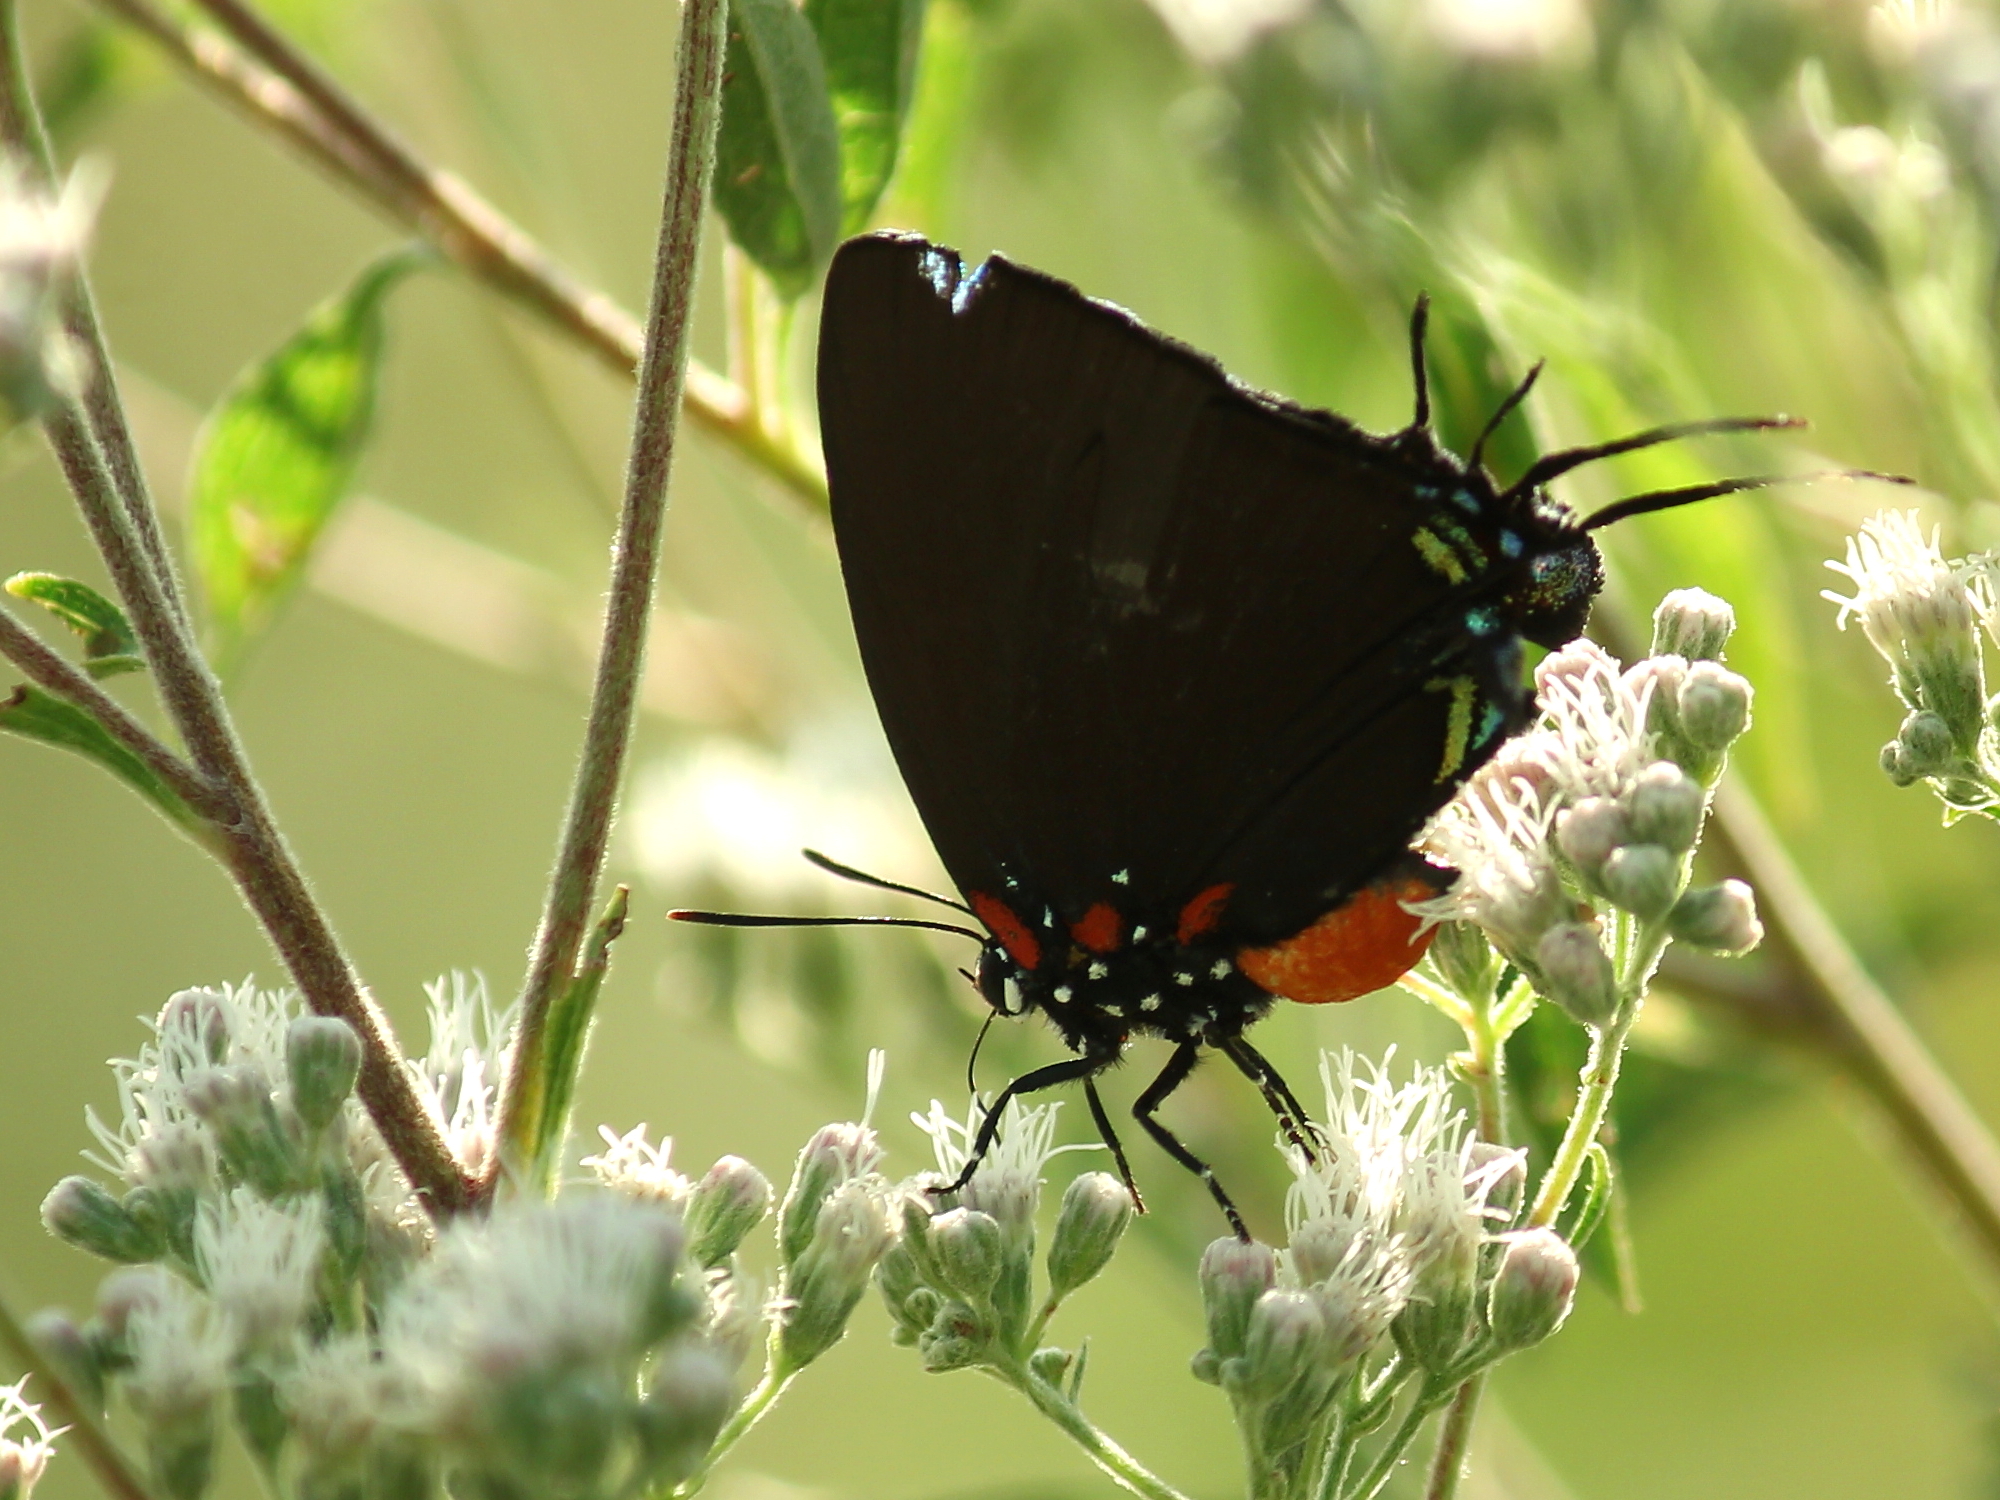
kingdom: Animalia
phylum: Arthropoda
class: Insecta
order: Lepidoptera
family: Lycaenidae
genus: Atlides
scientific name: Atlides halesus
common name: Great purple hairstreak
